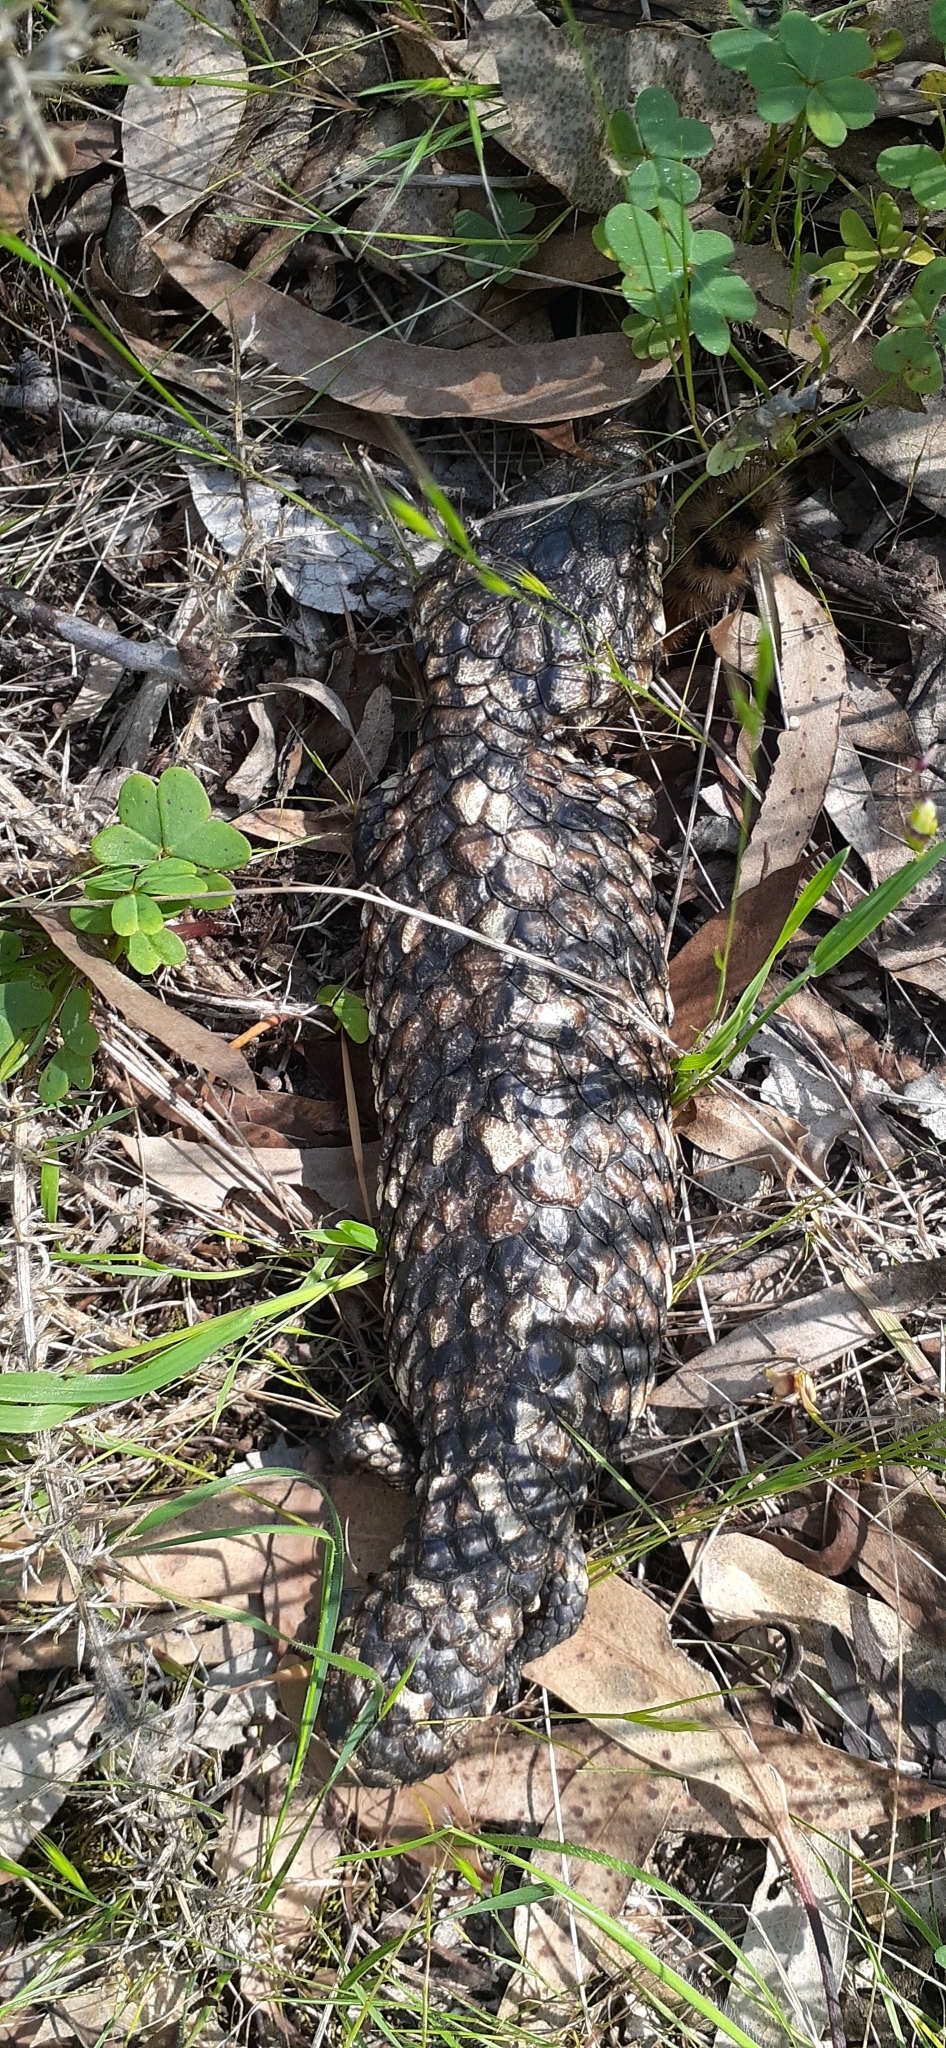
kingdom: Animalia
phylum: Chordata
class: Squamata
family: Scincidae
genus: Tiliqua
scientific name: Tiliqua rugosa
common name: Pinecone lizard
